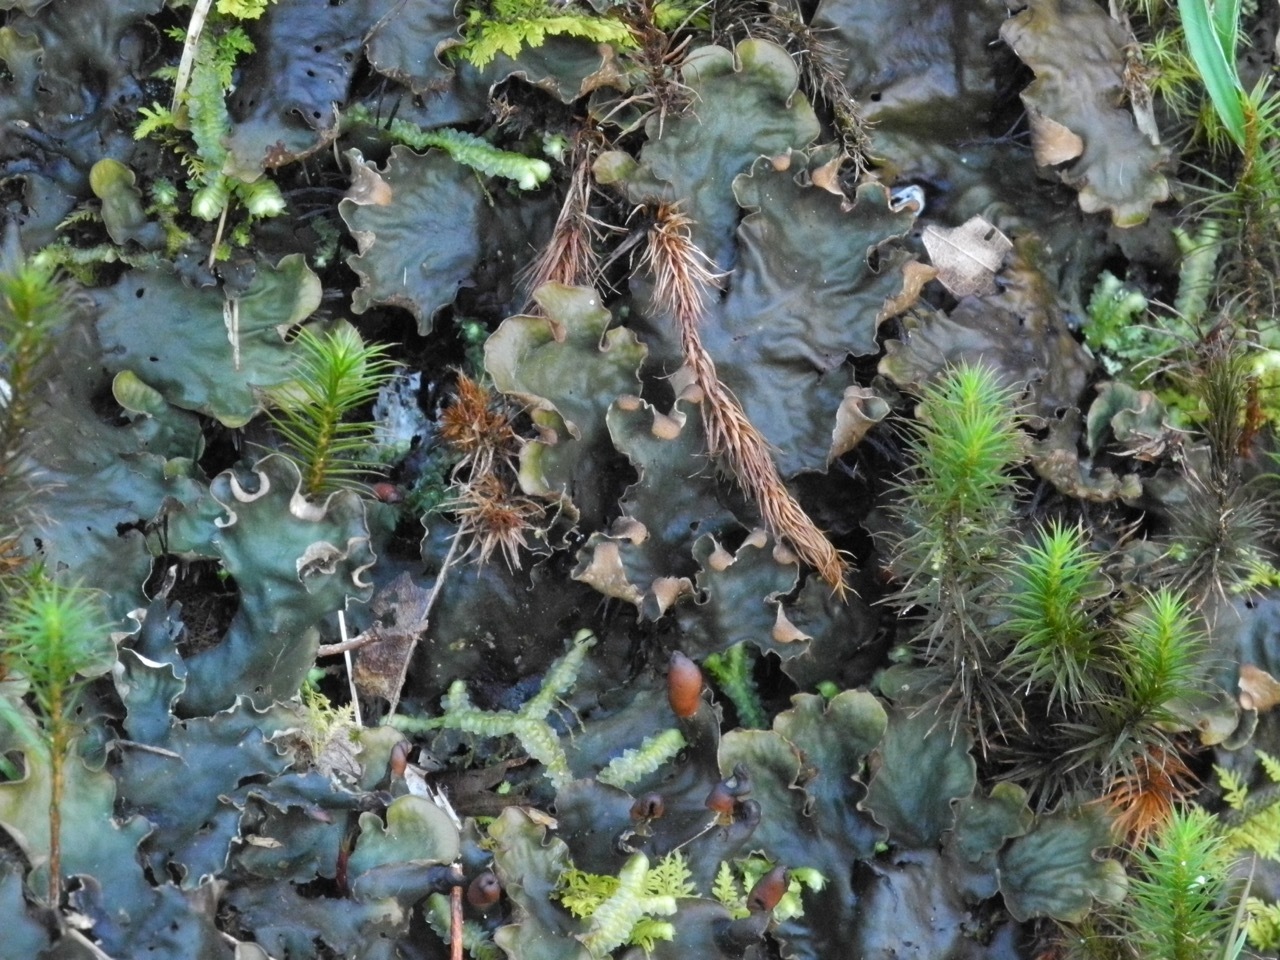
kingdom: Fungi
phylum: Ascomycota
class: Lecanoromycetes
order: Peltigerales
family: Peltigeraceae
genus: Peltigera
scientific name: Peltigera polydactylon
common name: Many-fruited pelt lichen
